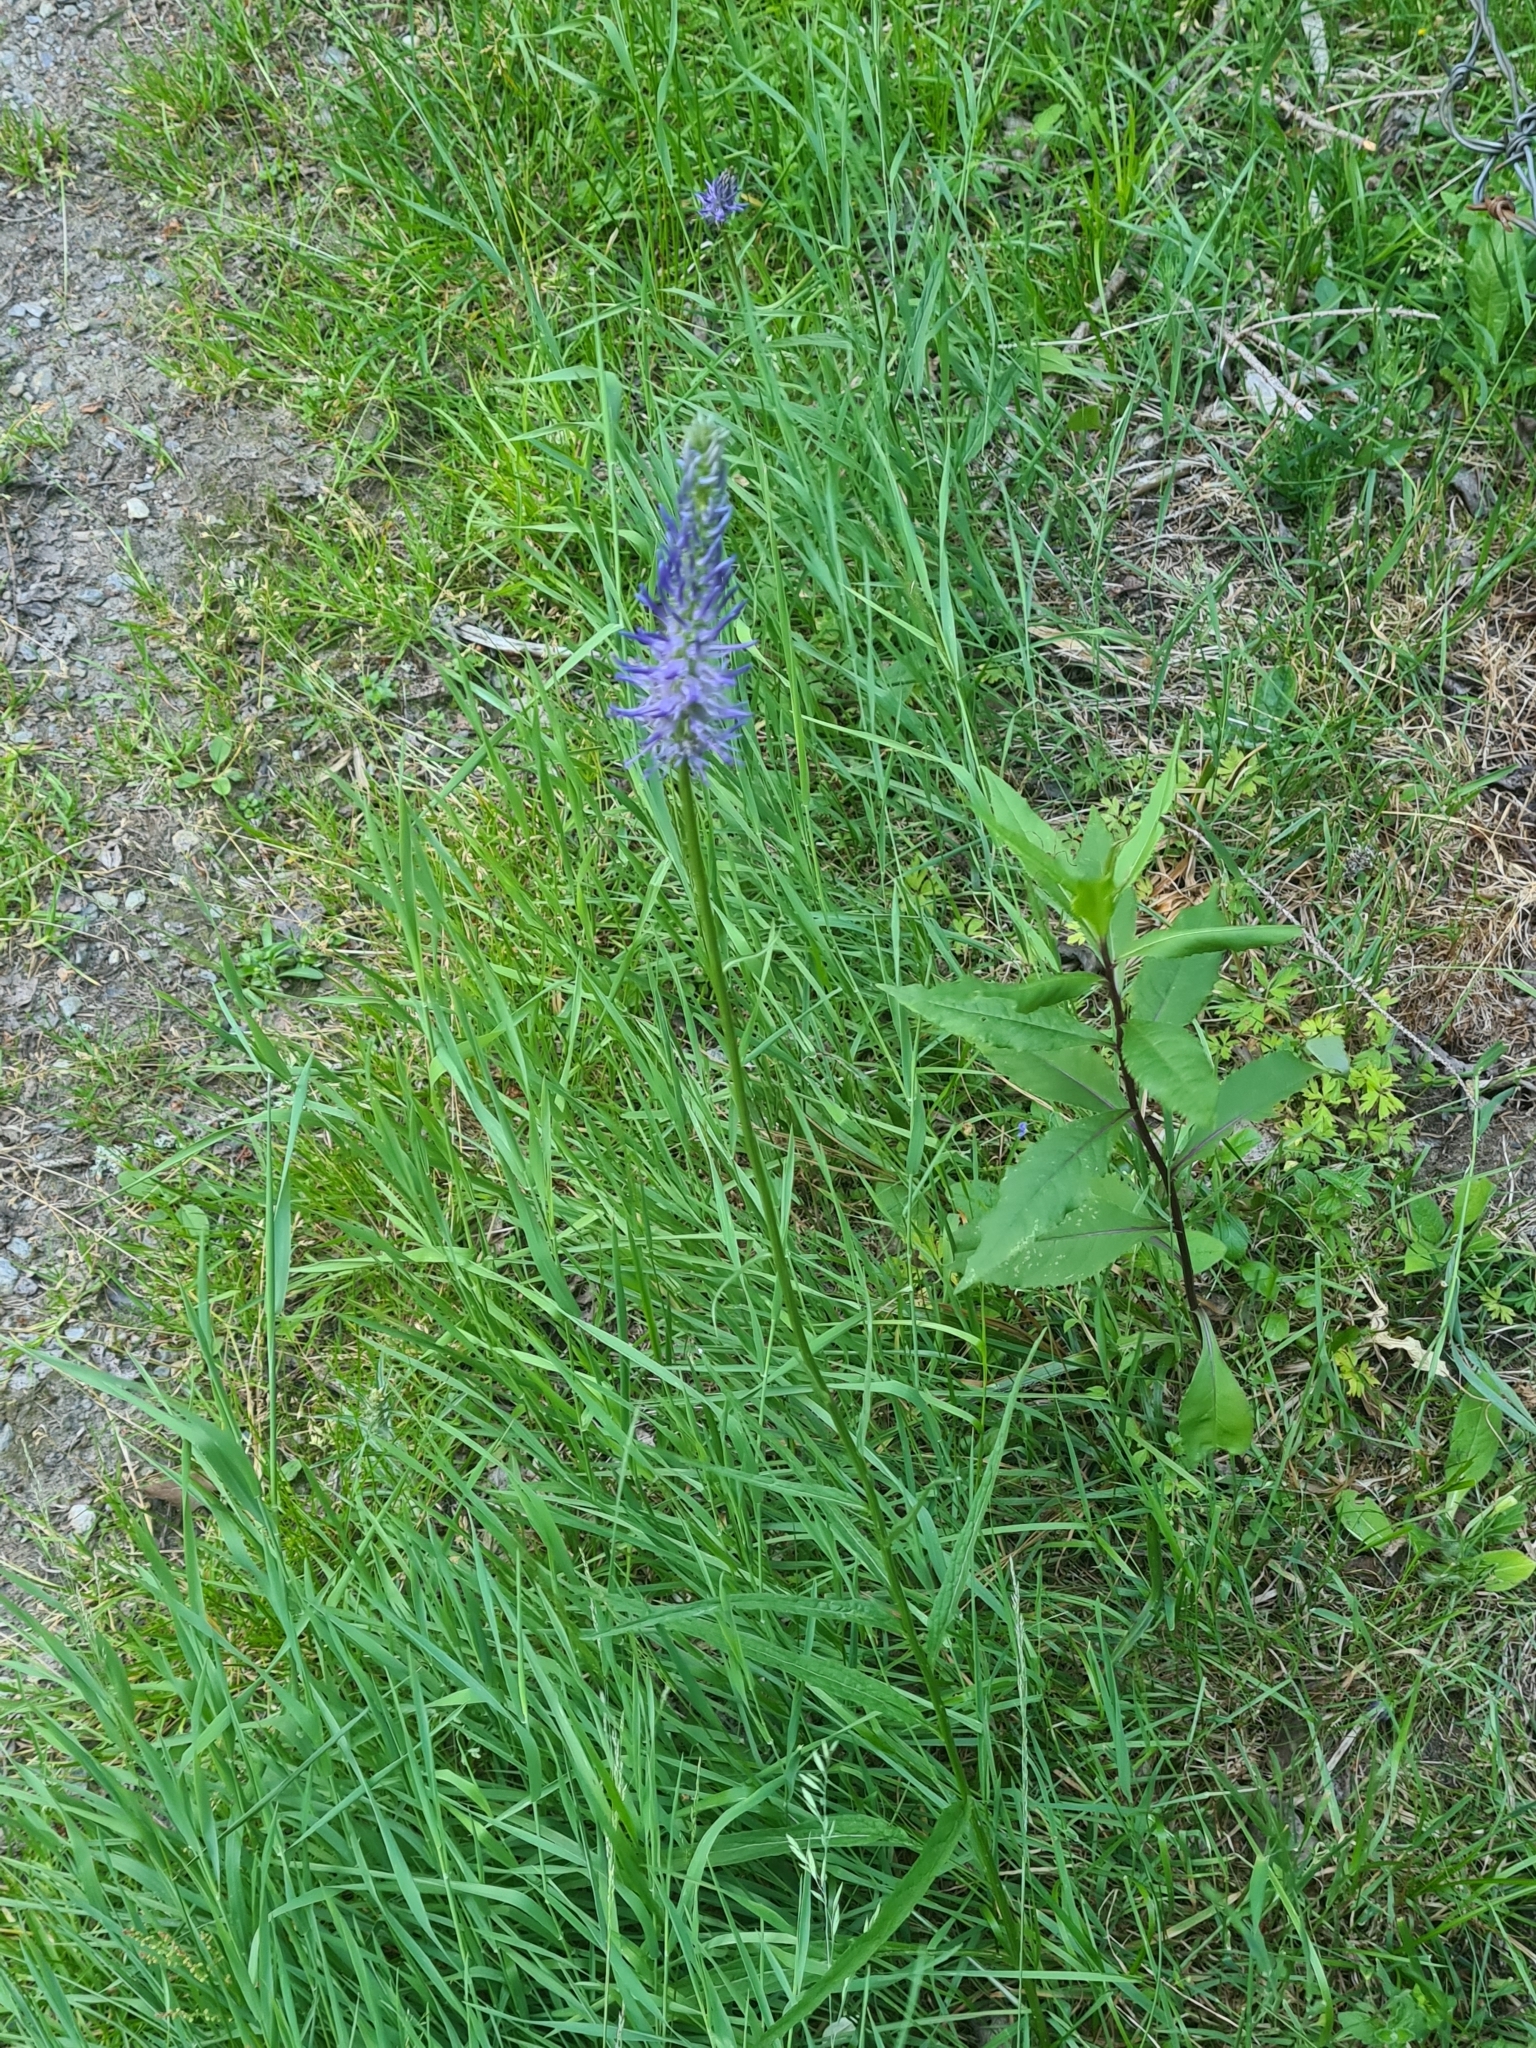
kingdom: Plantae
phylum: Tracheophyta
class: Magnoliopsida
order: Asterales
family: Campanulaceae
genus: Phyteuma
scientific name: Phyteuma persicifolium
